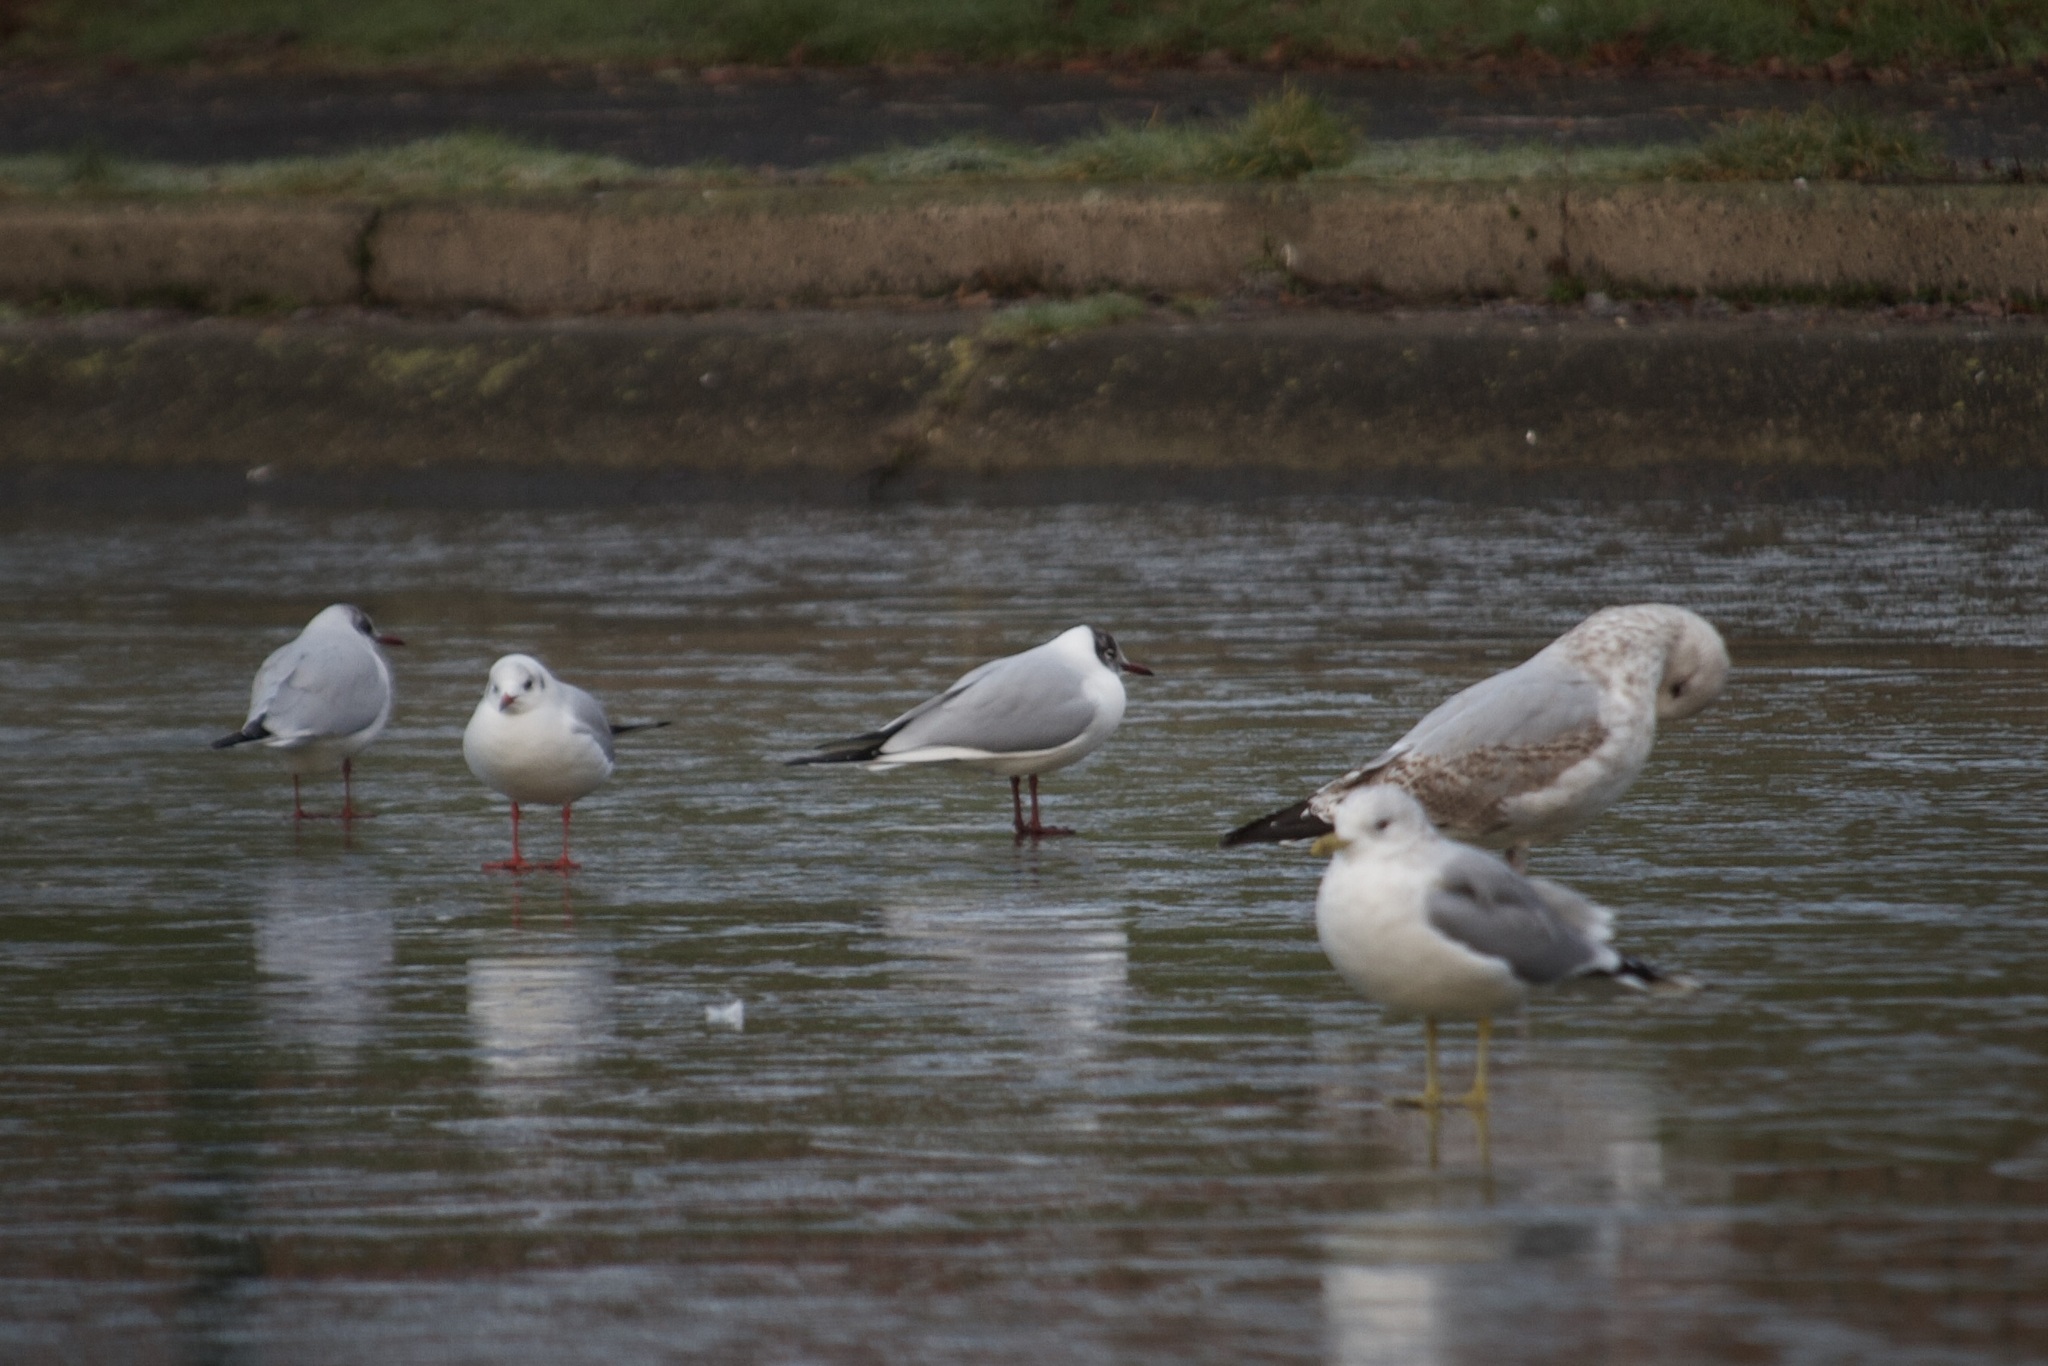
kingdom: Animalia
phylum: Chordata
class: Aves
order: Charadriiformes
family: Laridae
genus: Chroicocephalus
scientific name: Chroicocephalus ridibundus
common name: Black-headed gull
